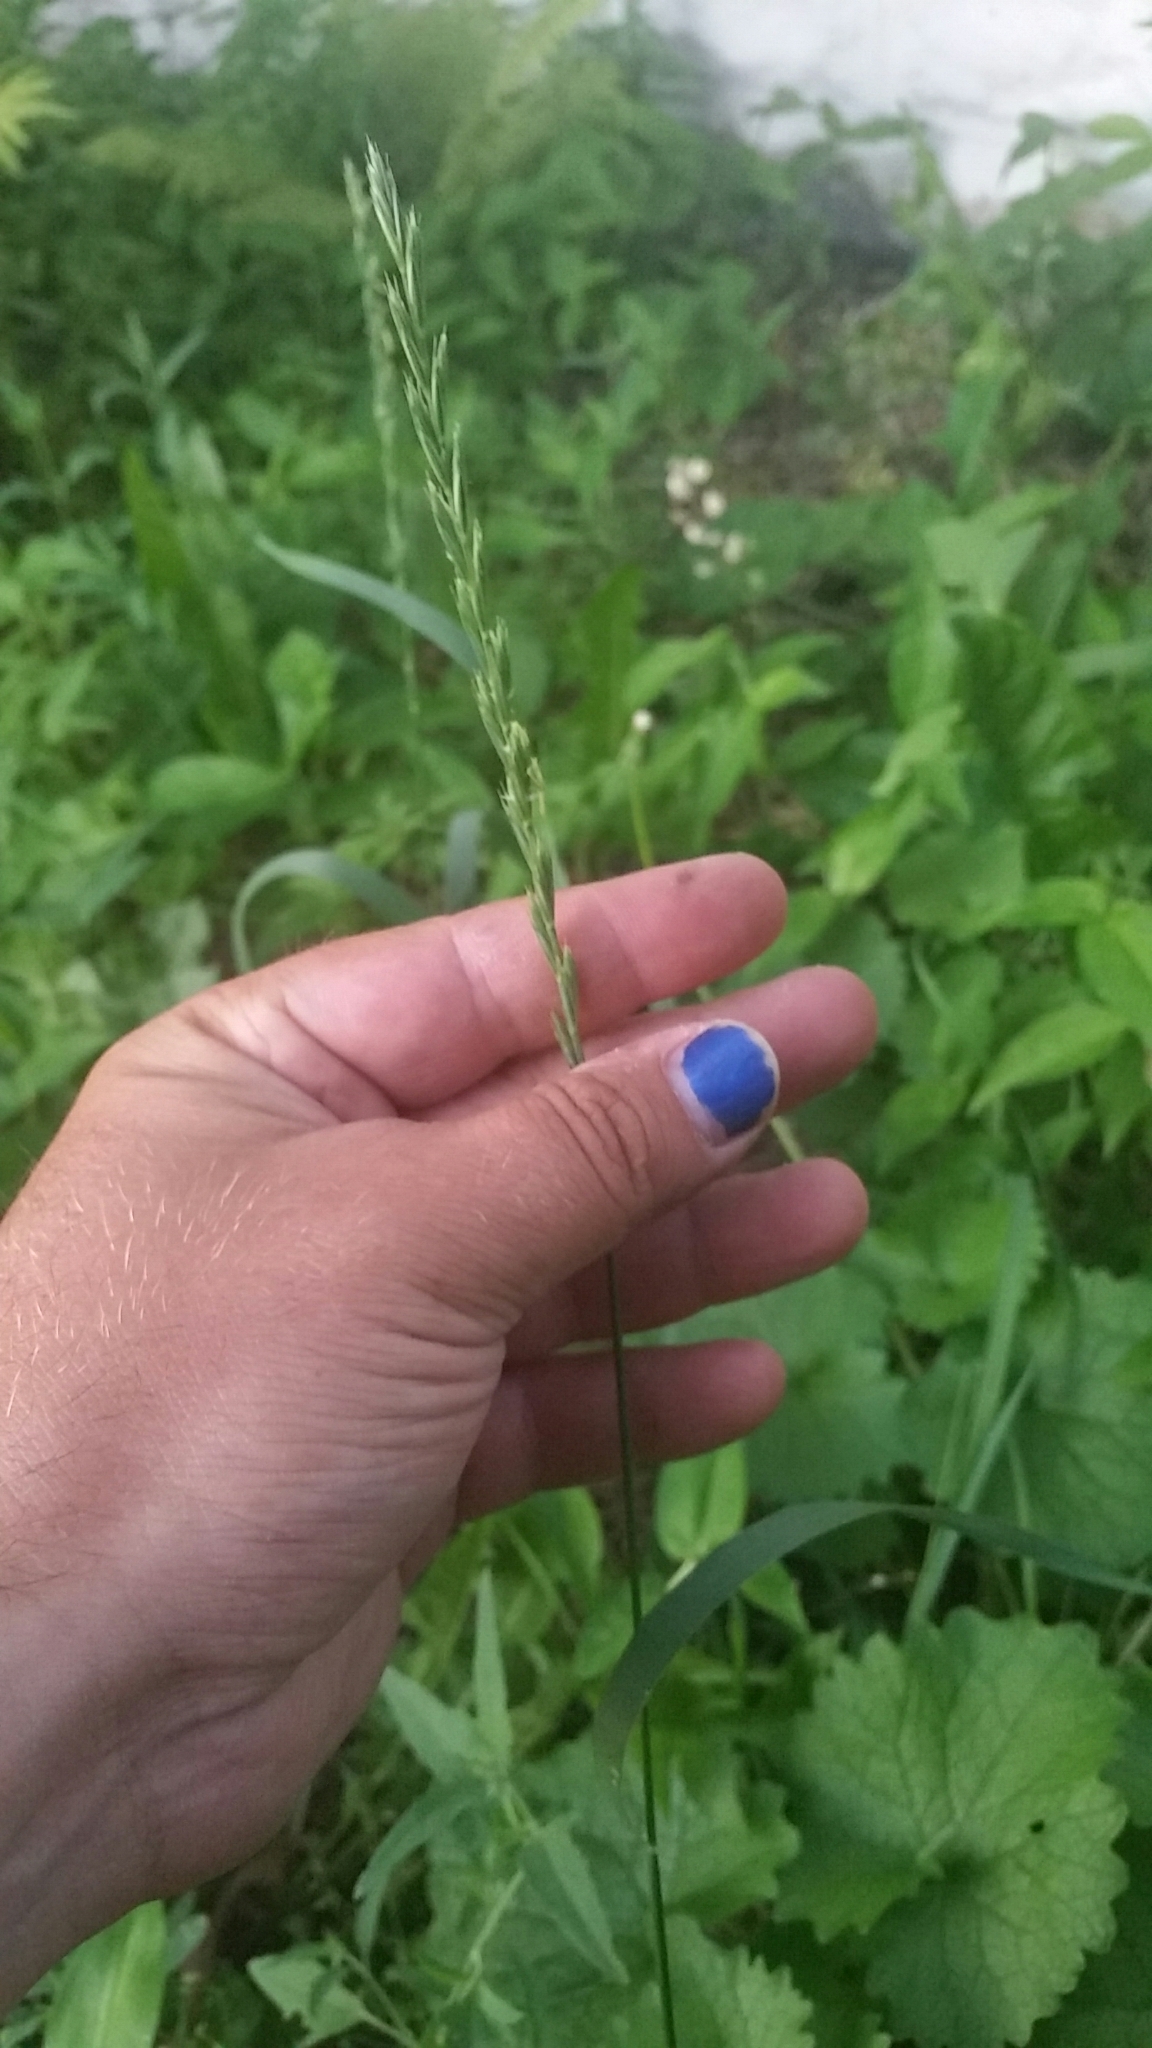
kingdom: Plantae
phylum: Tracheophyta
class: Liliopsida
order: Poales
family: Poaceae
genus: Lolium
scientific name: Lolium perenne
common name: Perennial ryegrass
